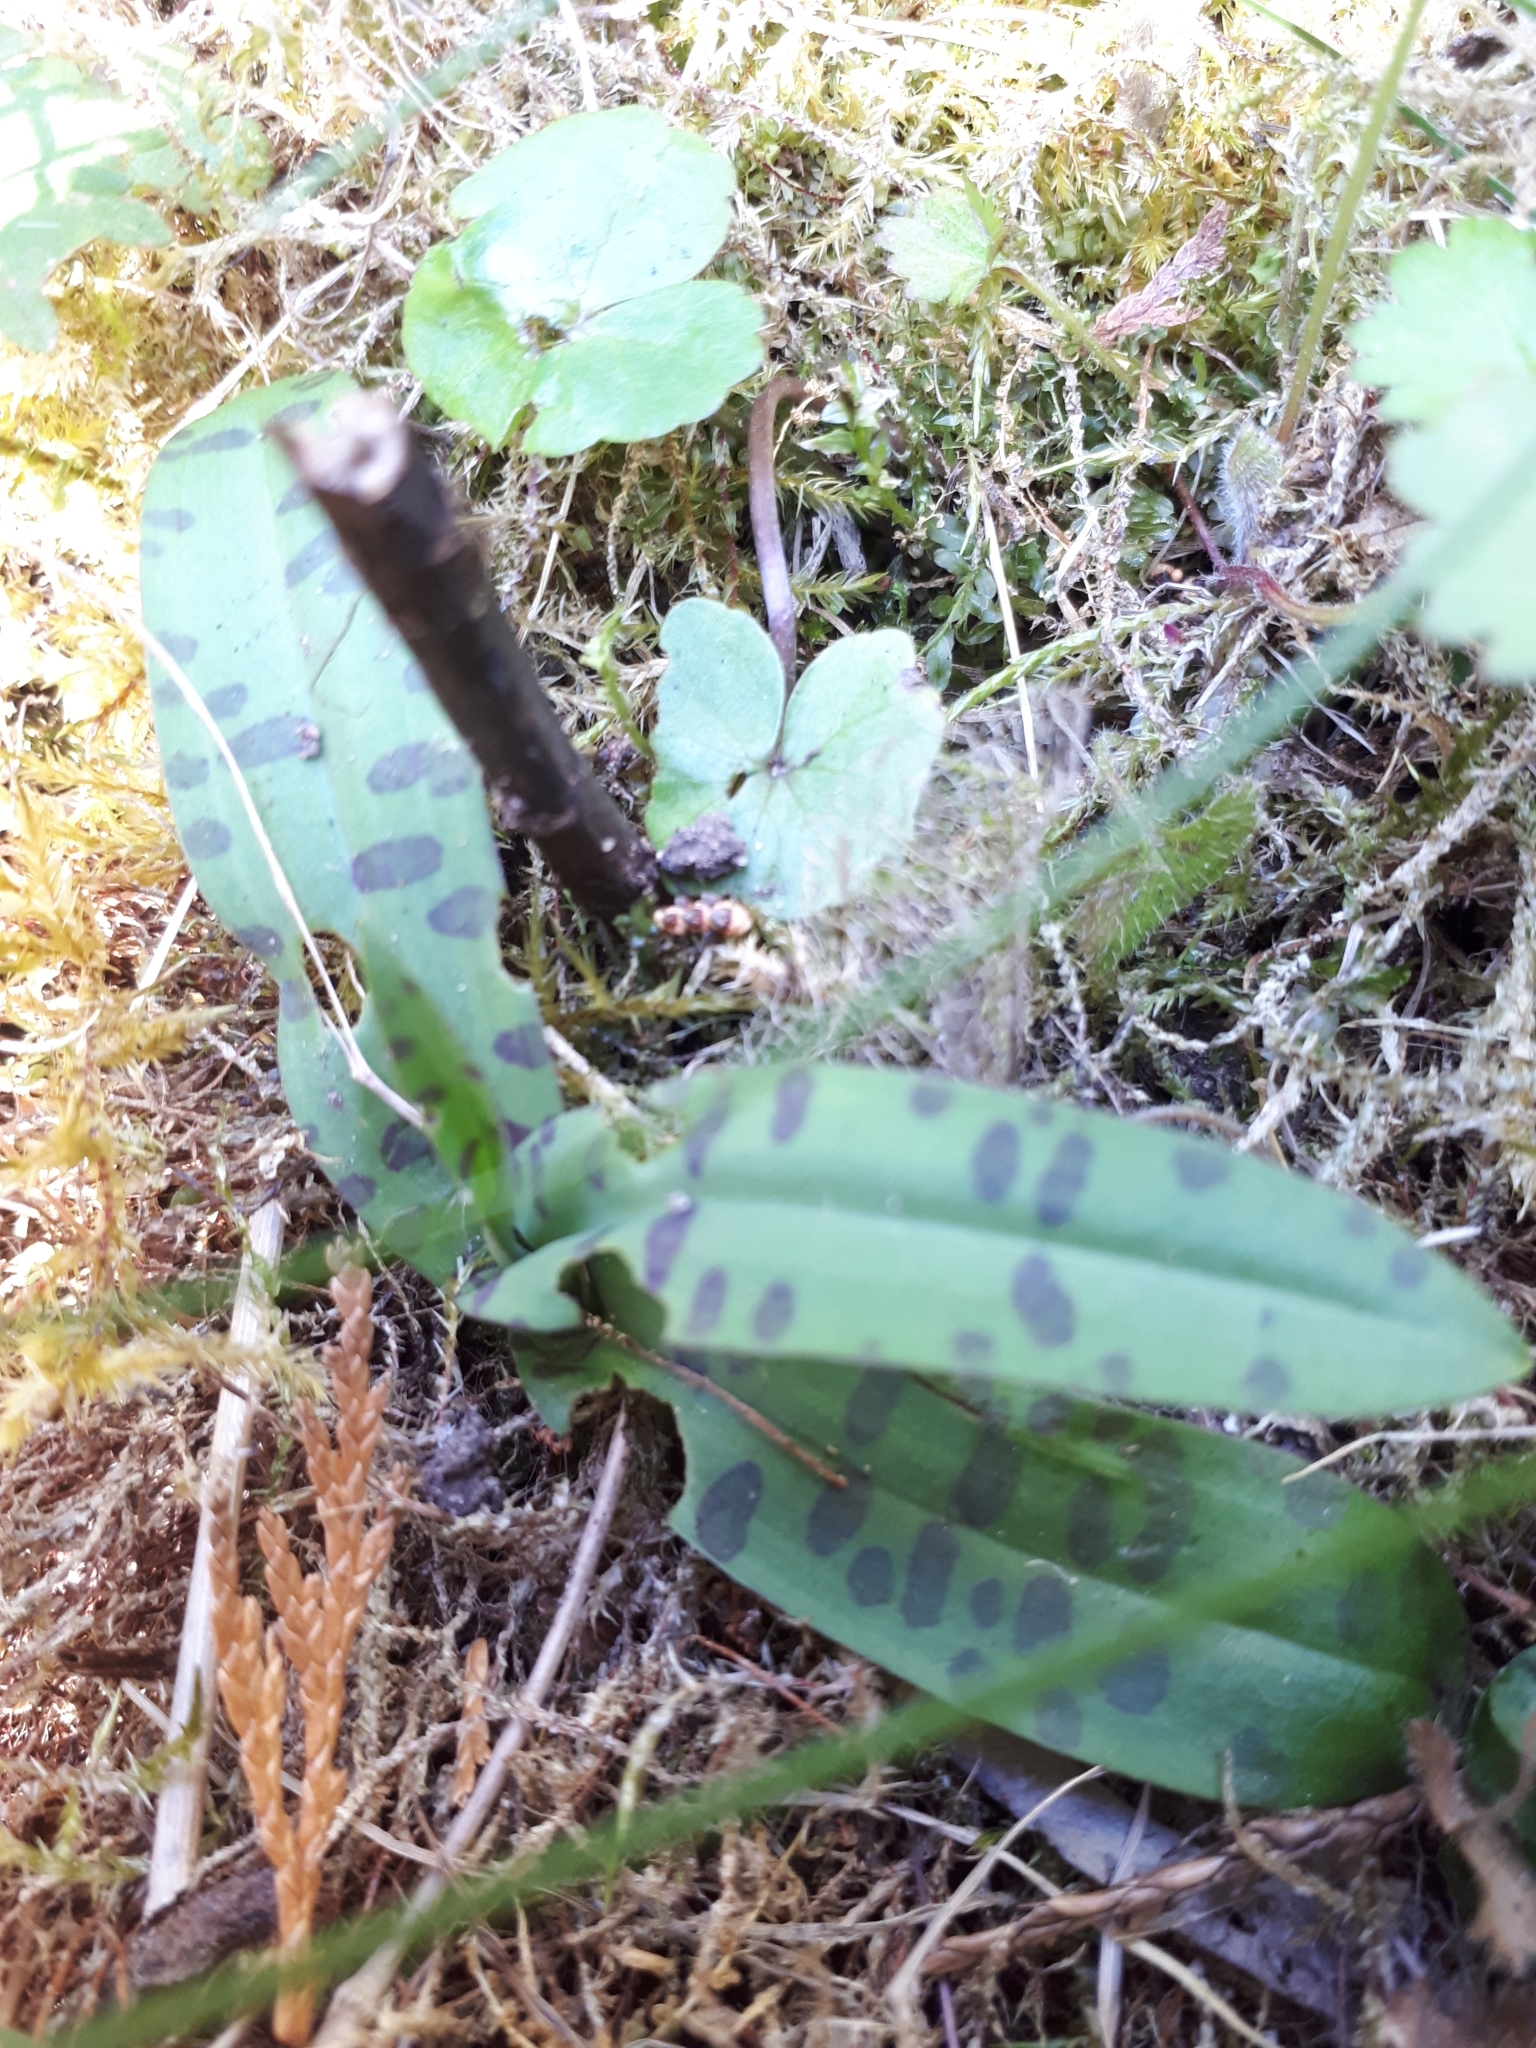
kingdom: Plantae
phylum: Tracheophyta
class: Liliopsida
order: Asparagales
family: Orchidaceae
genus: Dactylorhiza
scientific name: Dactylorhiza maculata
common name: Heath spotted-orchid
